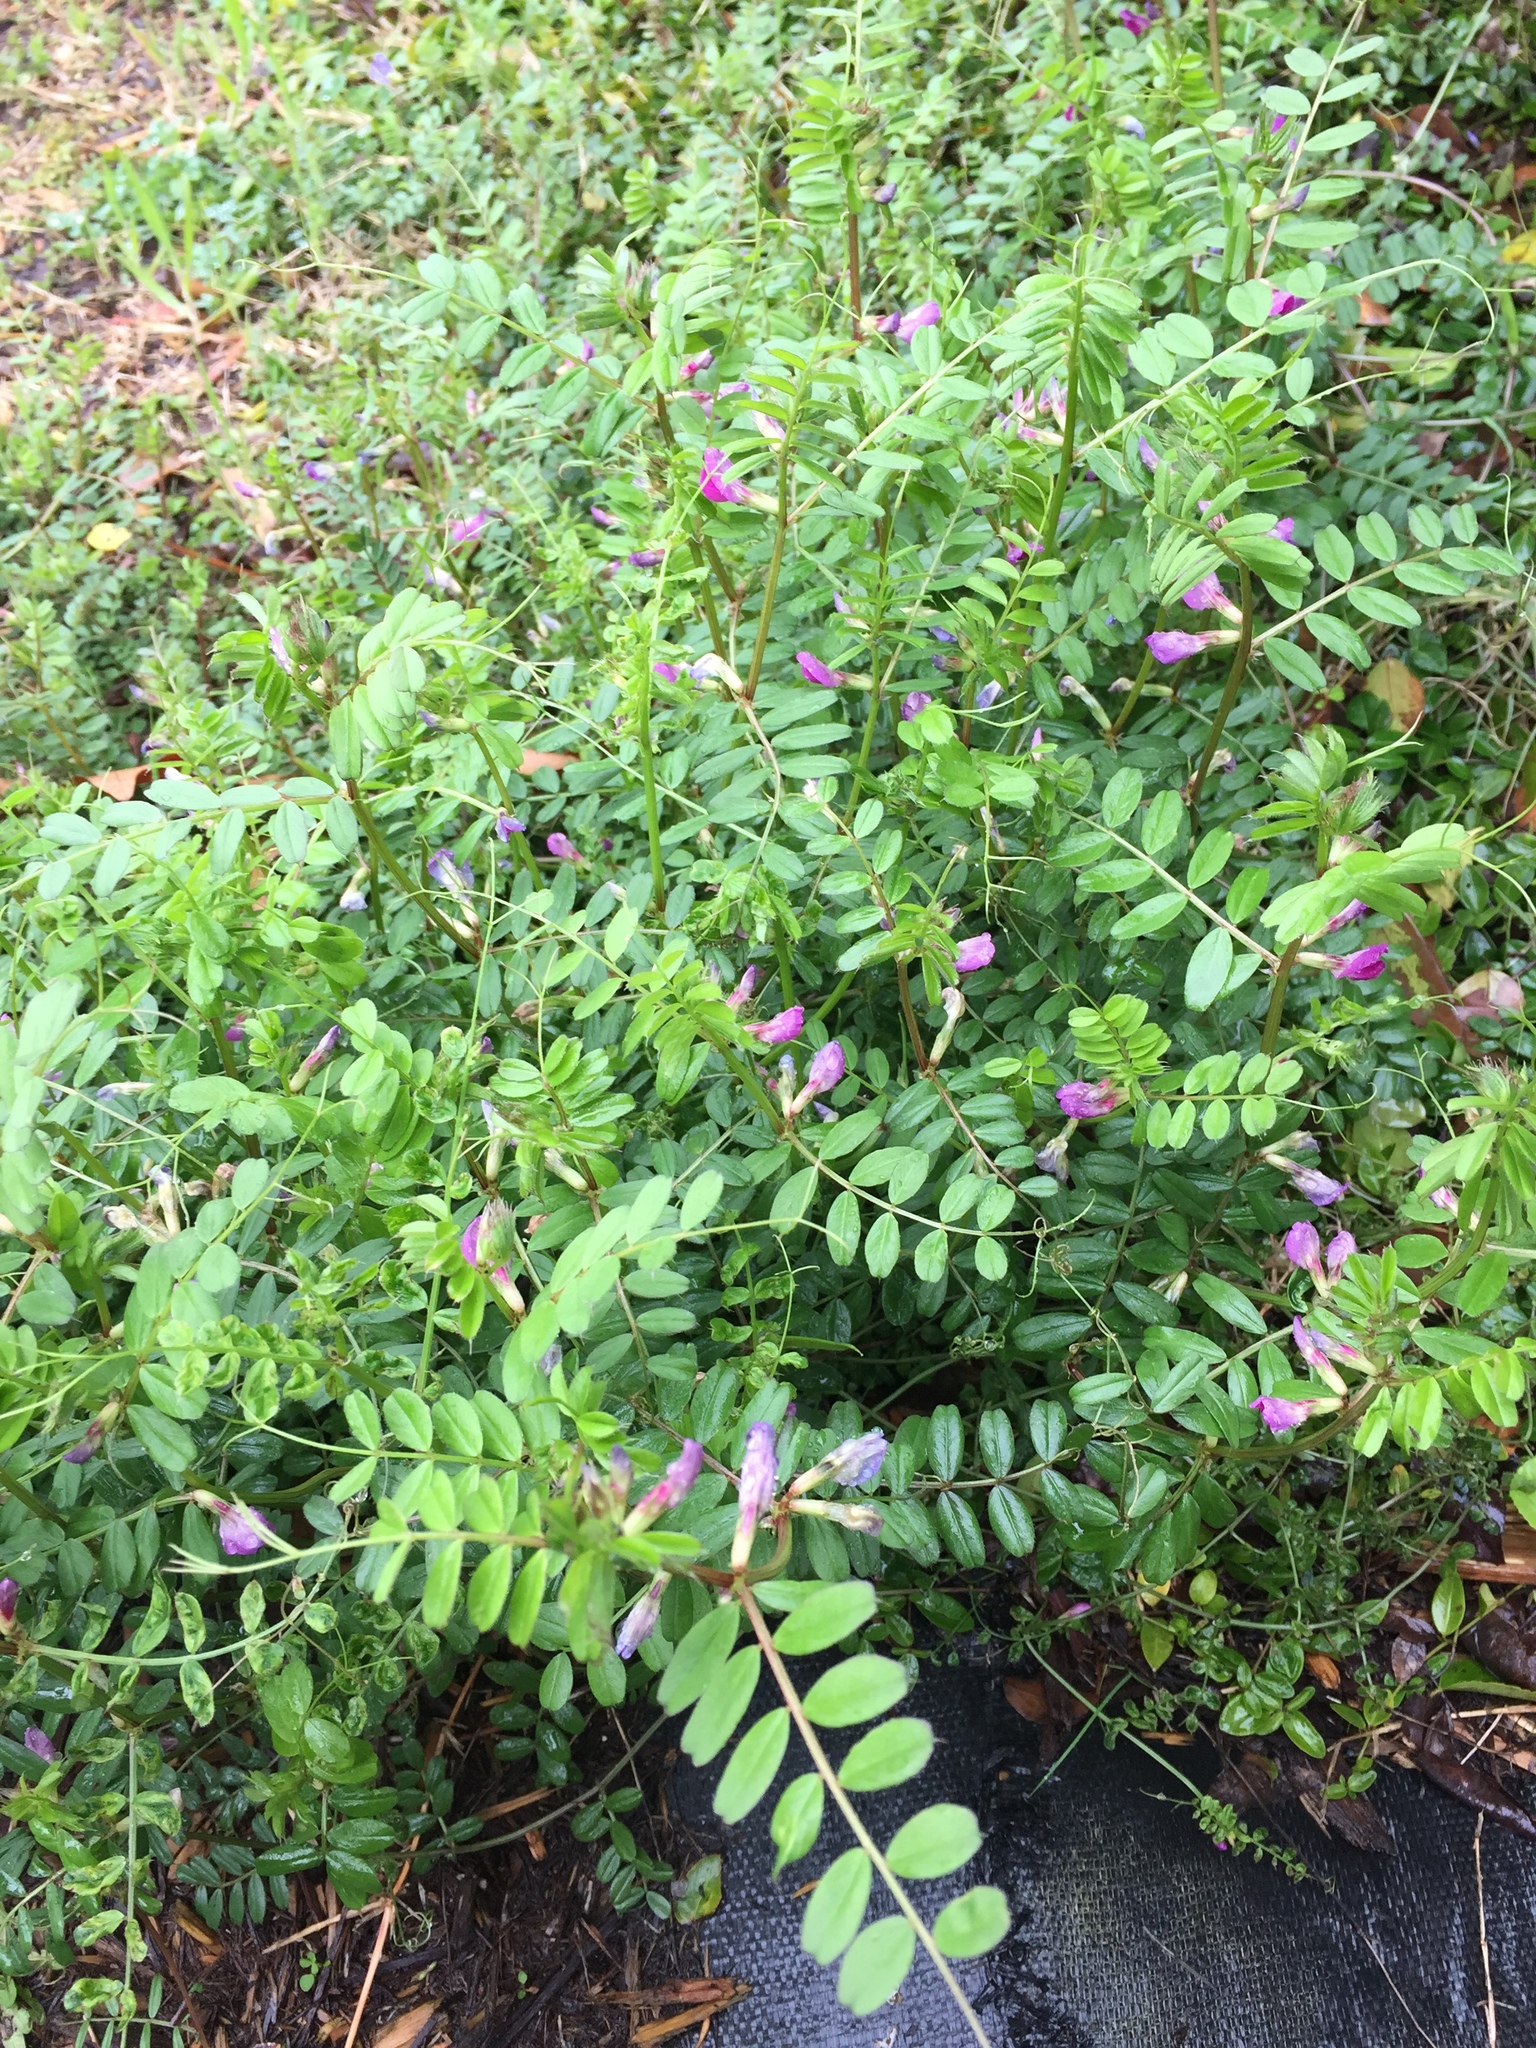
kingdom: Plantae
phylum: Tracheophyta
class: Magnoliopsida
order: Fabales
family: Fabaceae
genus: Vicia
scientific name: Vicia sativa
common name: Garden vetch
